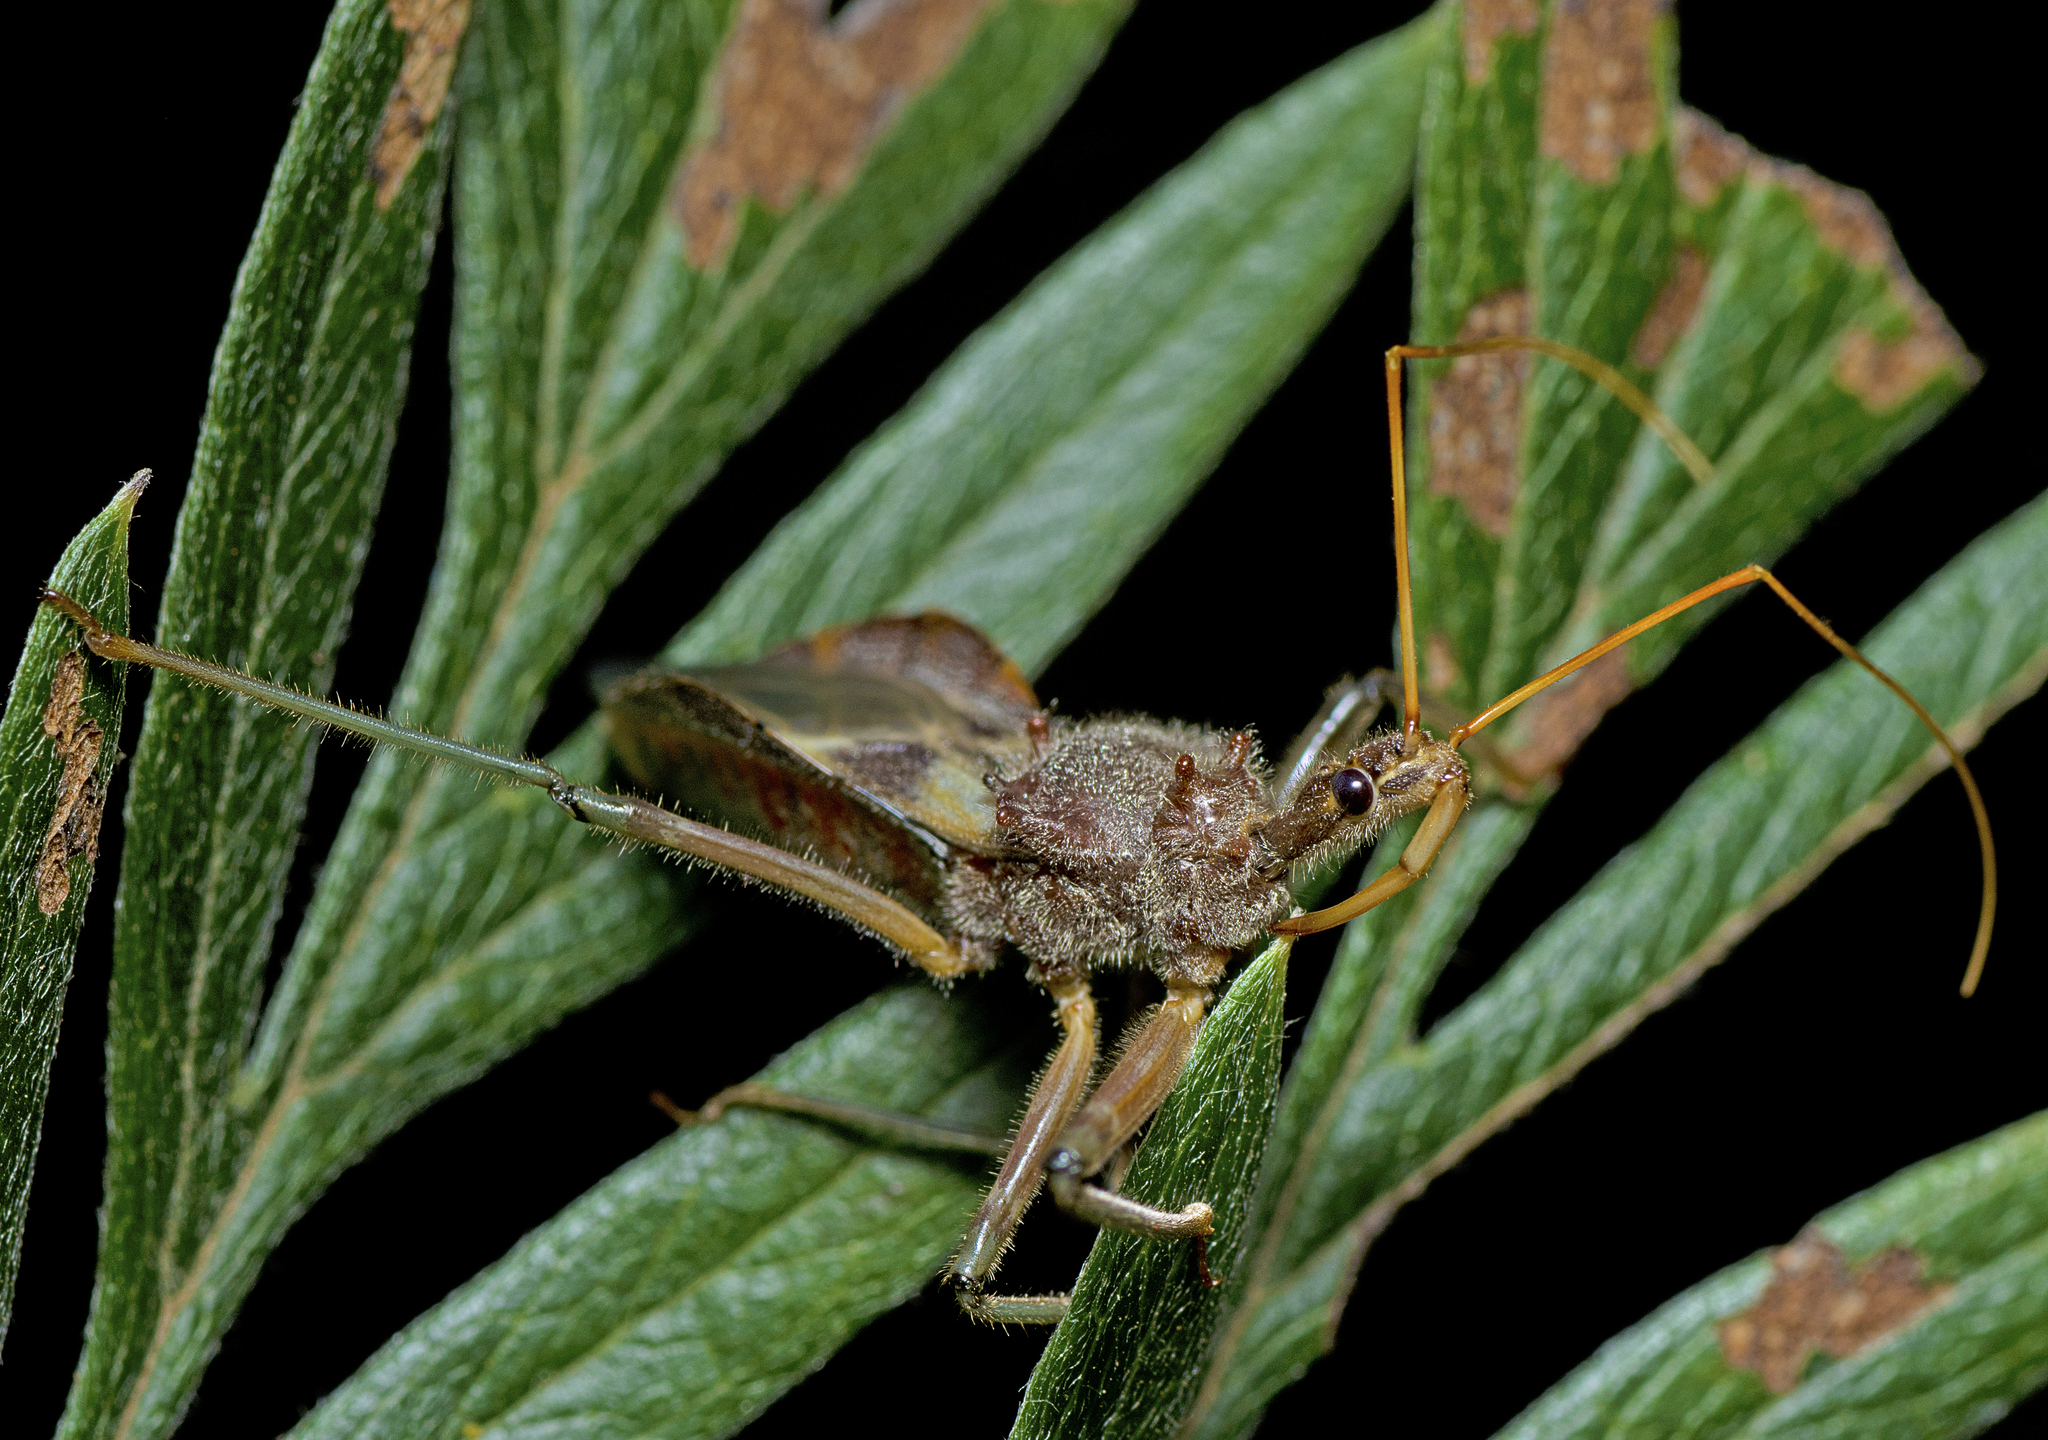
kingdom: Animalia
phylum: Arthropoda
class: Insecta
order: Hemiptera
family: Reduviidae
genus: Pristhesancus
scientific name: Pristhesancus plagipennis
